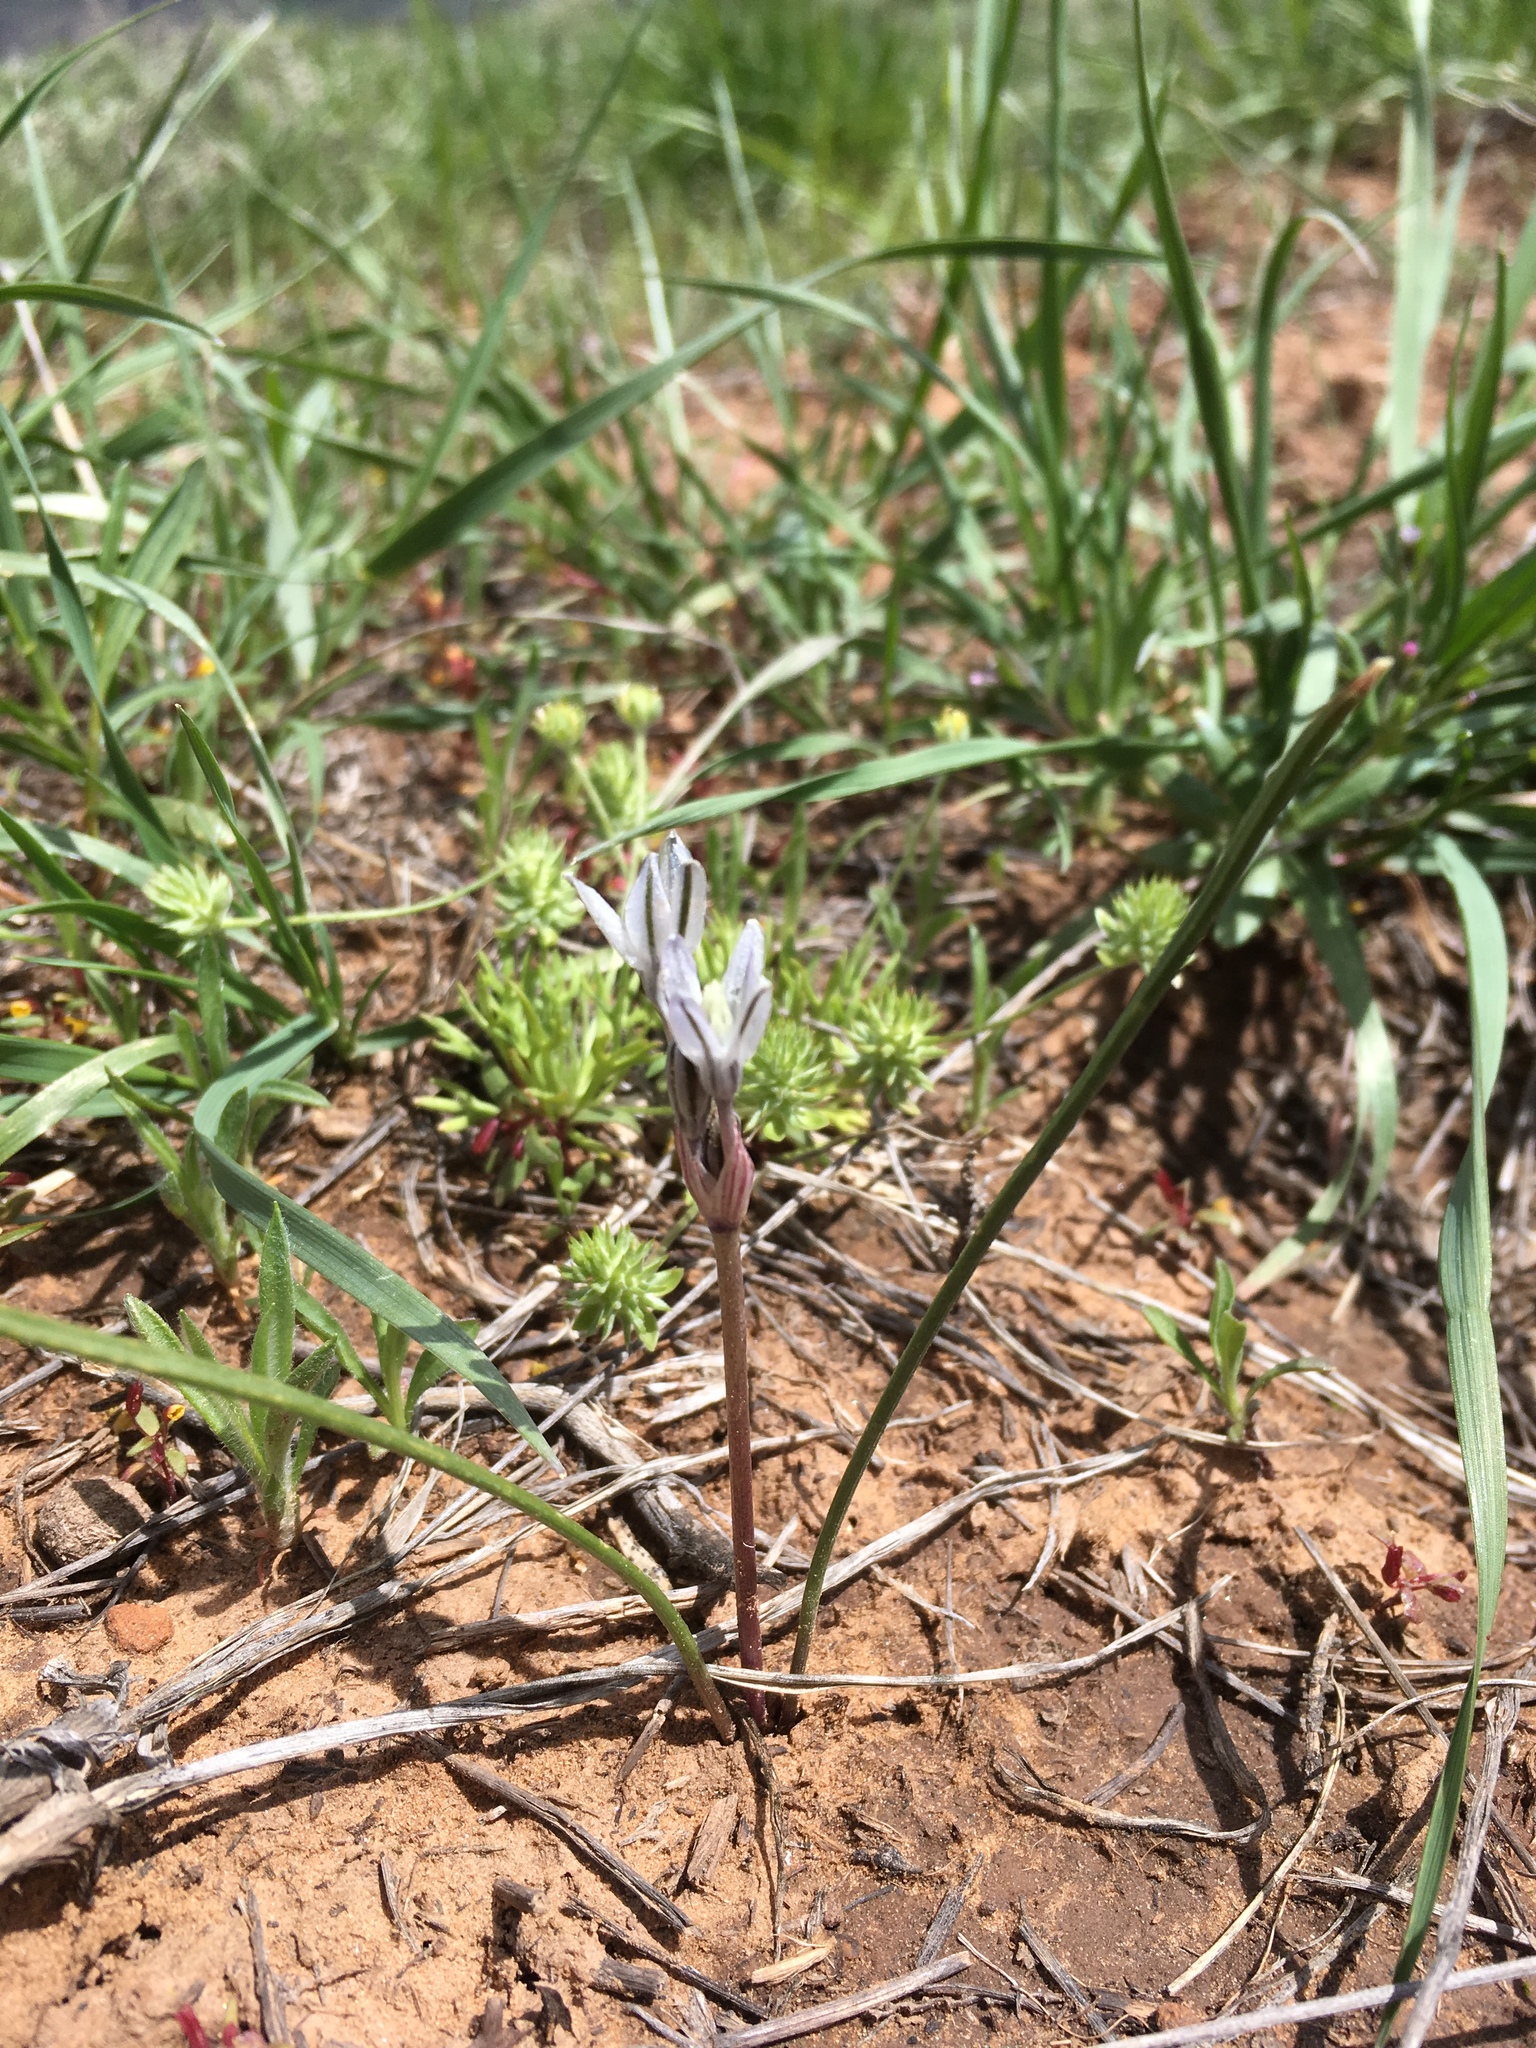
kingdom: Plantae
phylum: Tracheophyta
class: Liliopsida
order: Asparagales
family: Asparagaceae
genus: Androstephium
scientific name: Androstephium breviflorum
